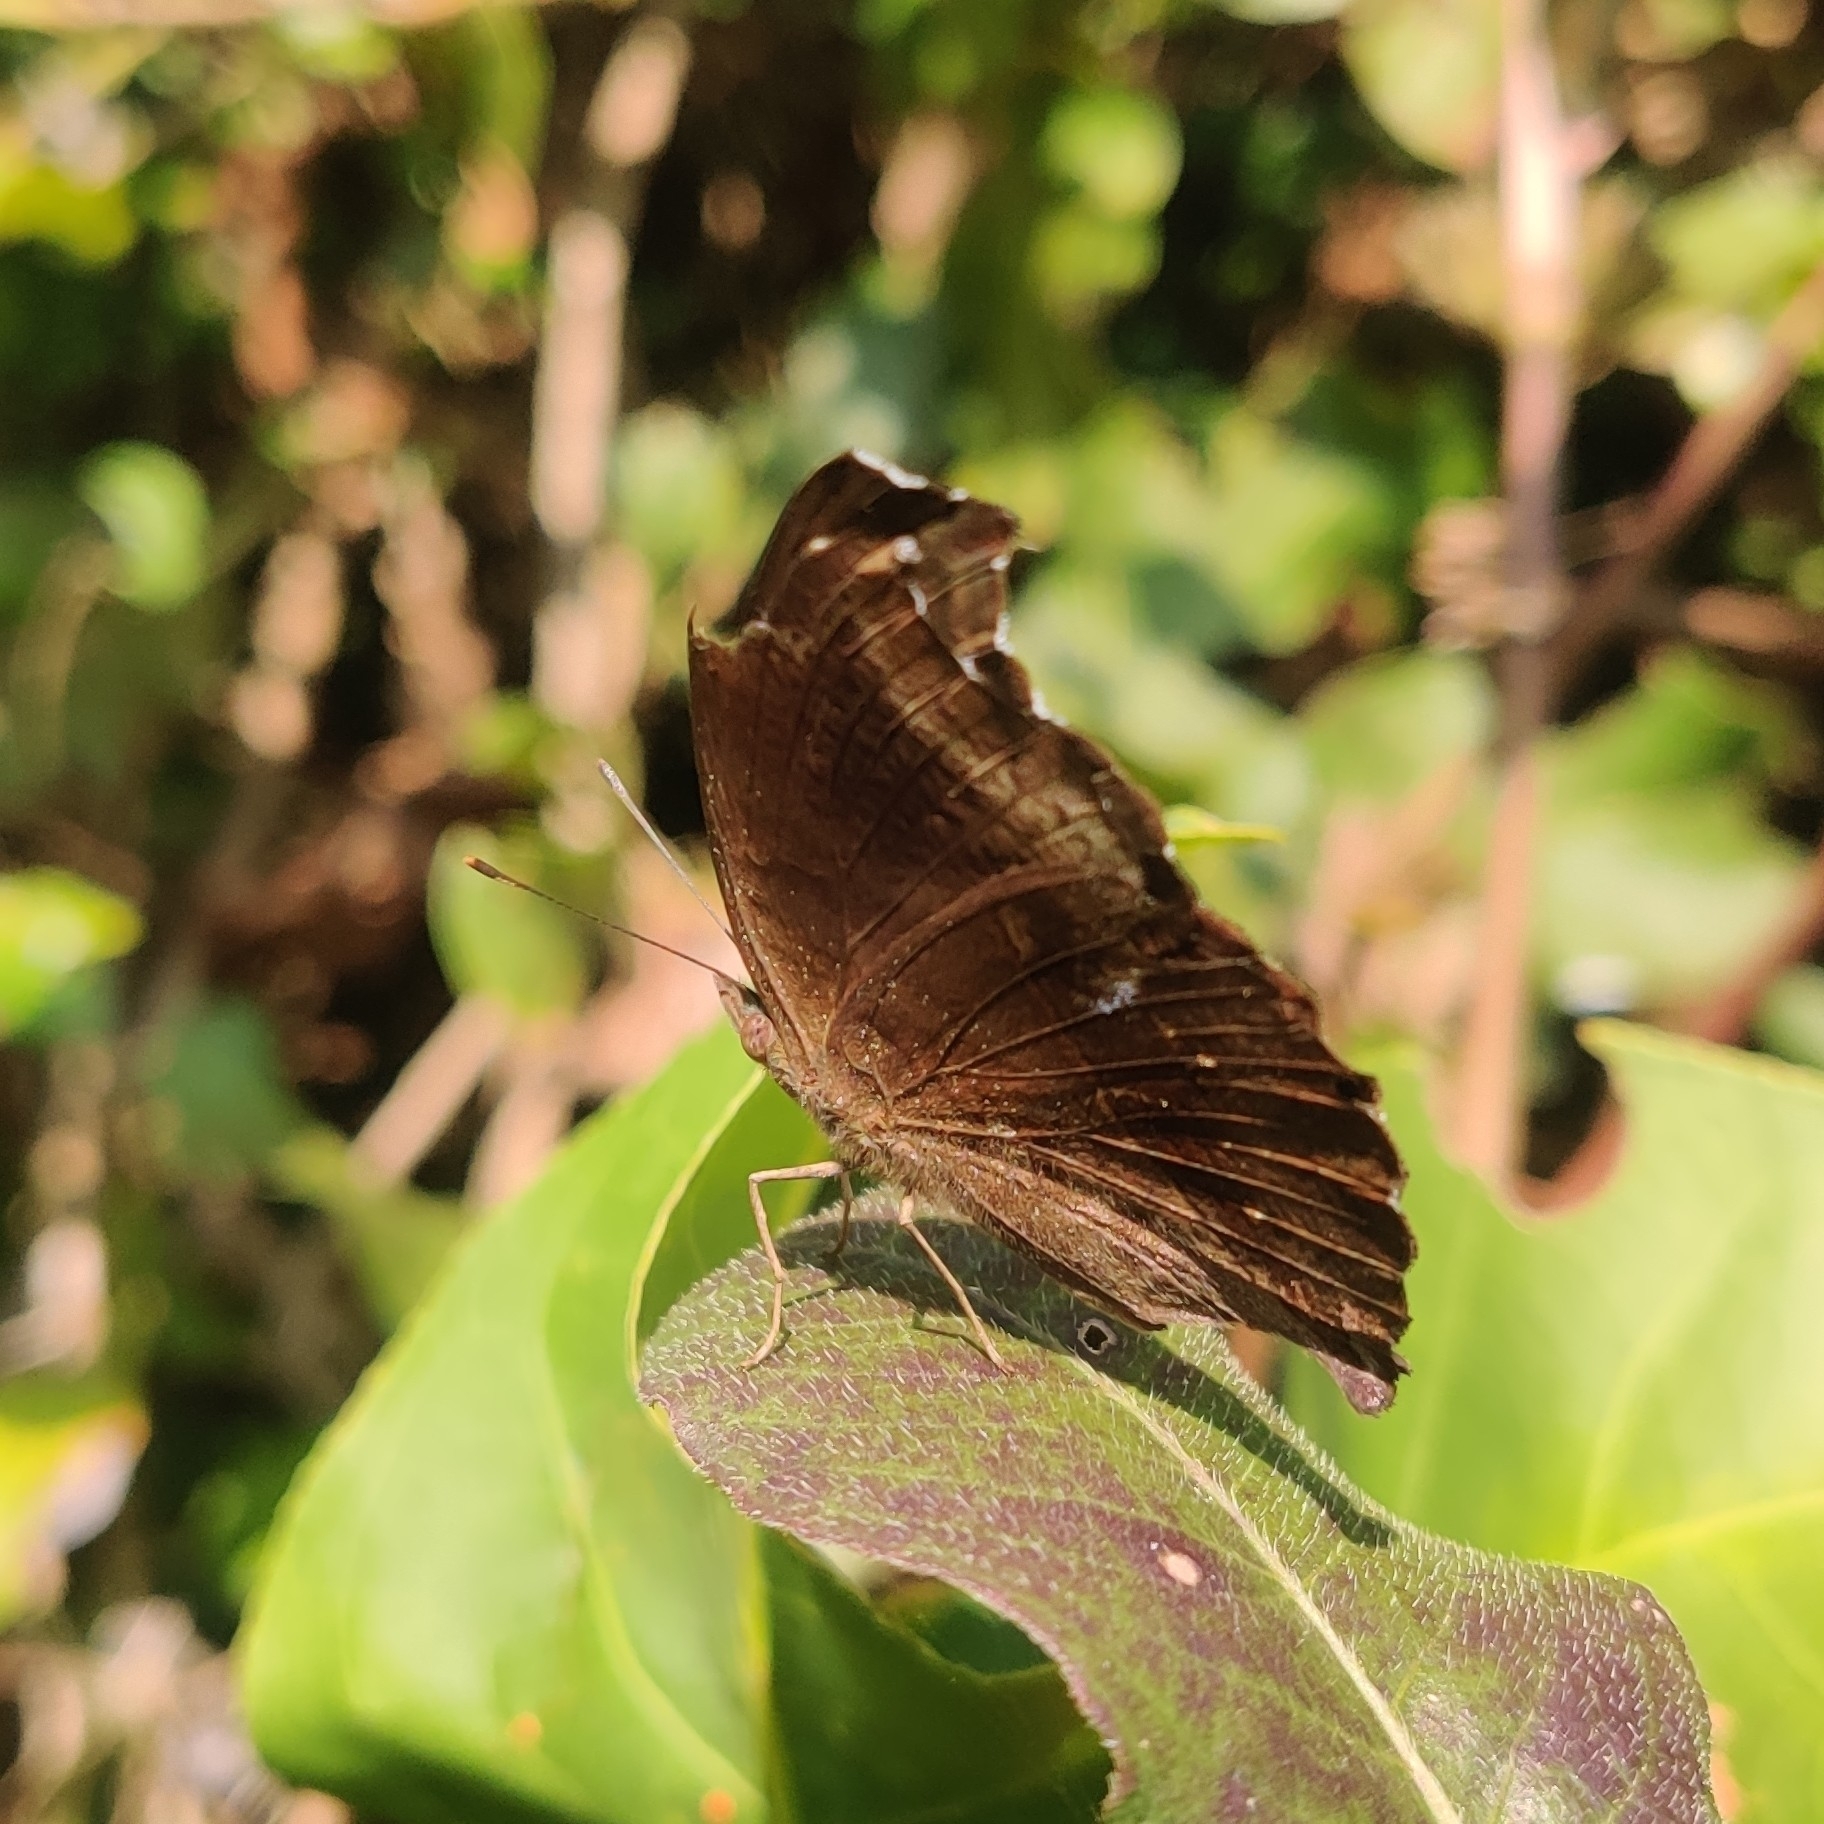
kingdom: Animalia
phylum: Arthropoda
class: Insecta
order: Lepidoptera
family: Nymphalidae
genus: Junonia
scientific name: Junonia iphita
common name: Chocolate pansy
